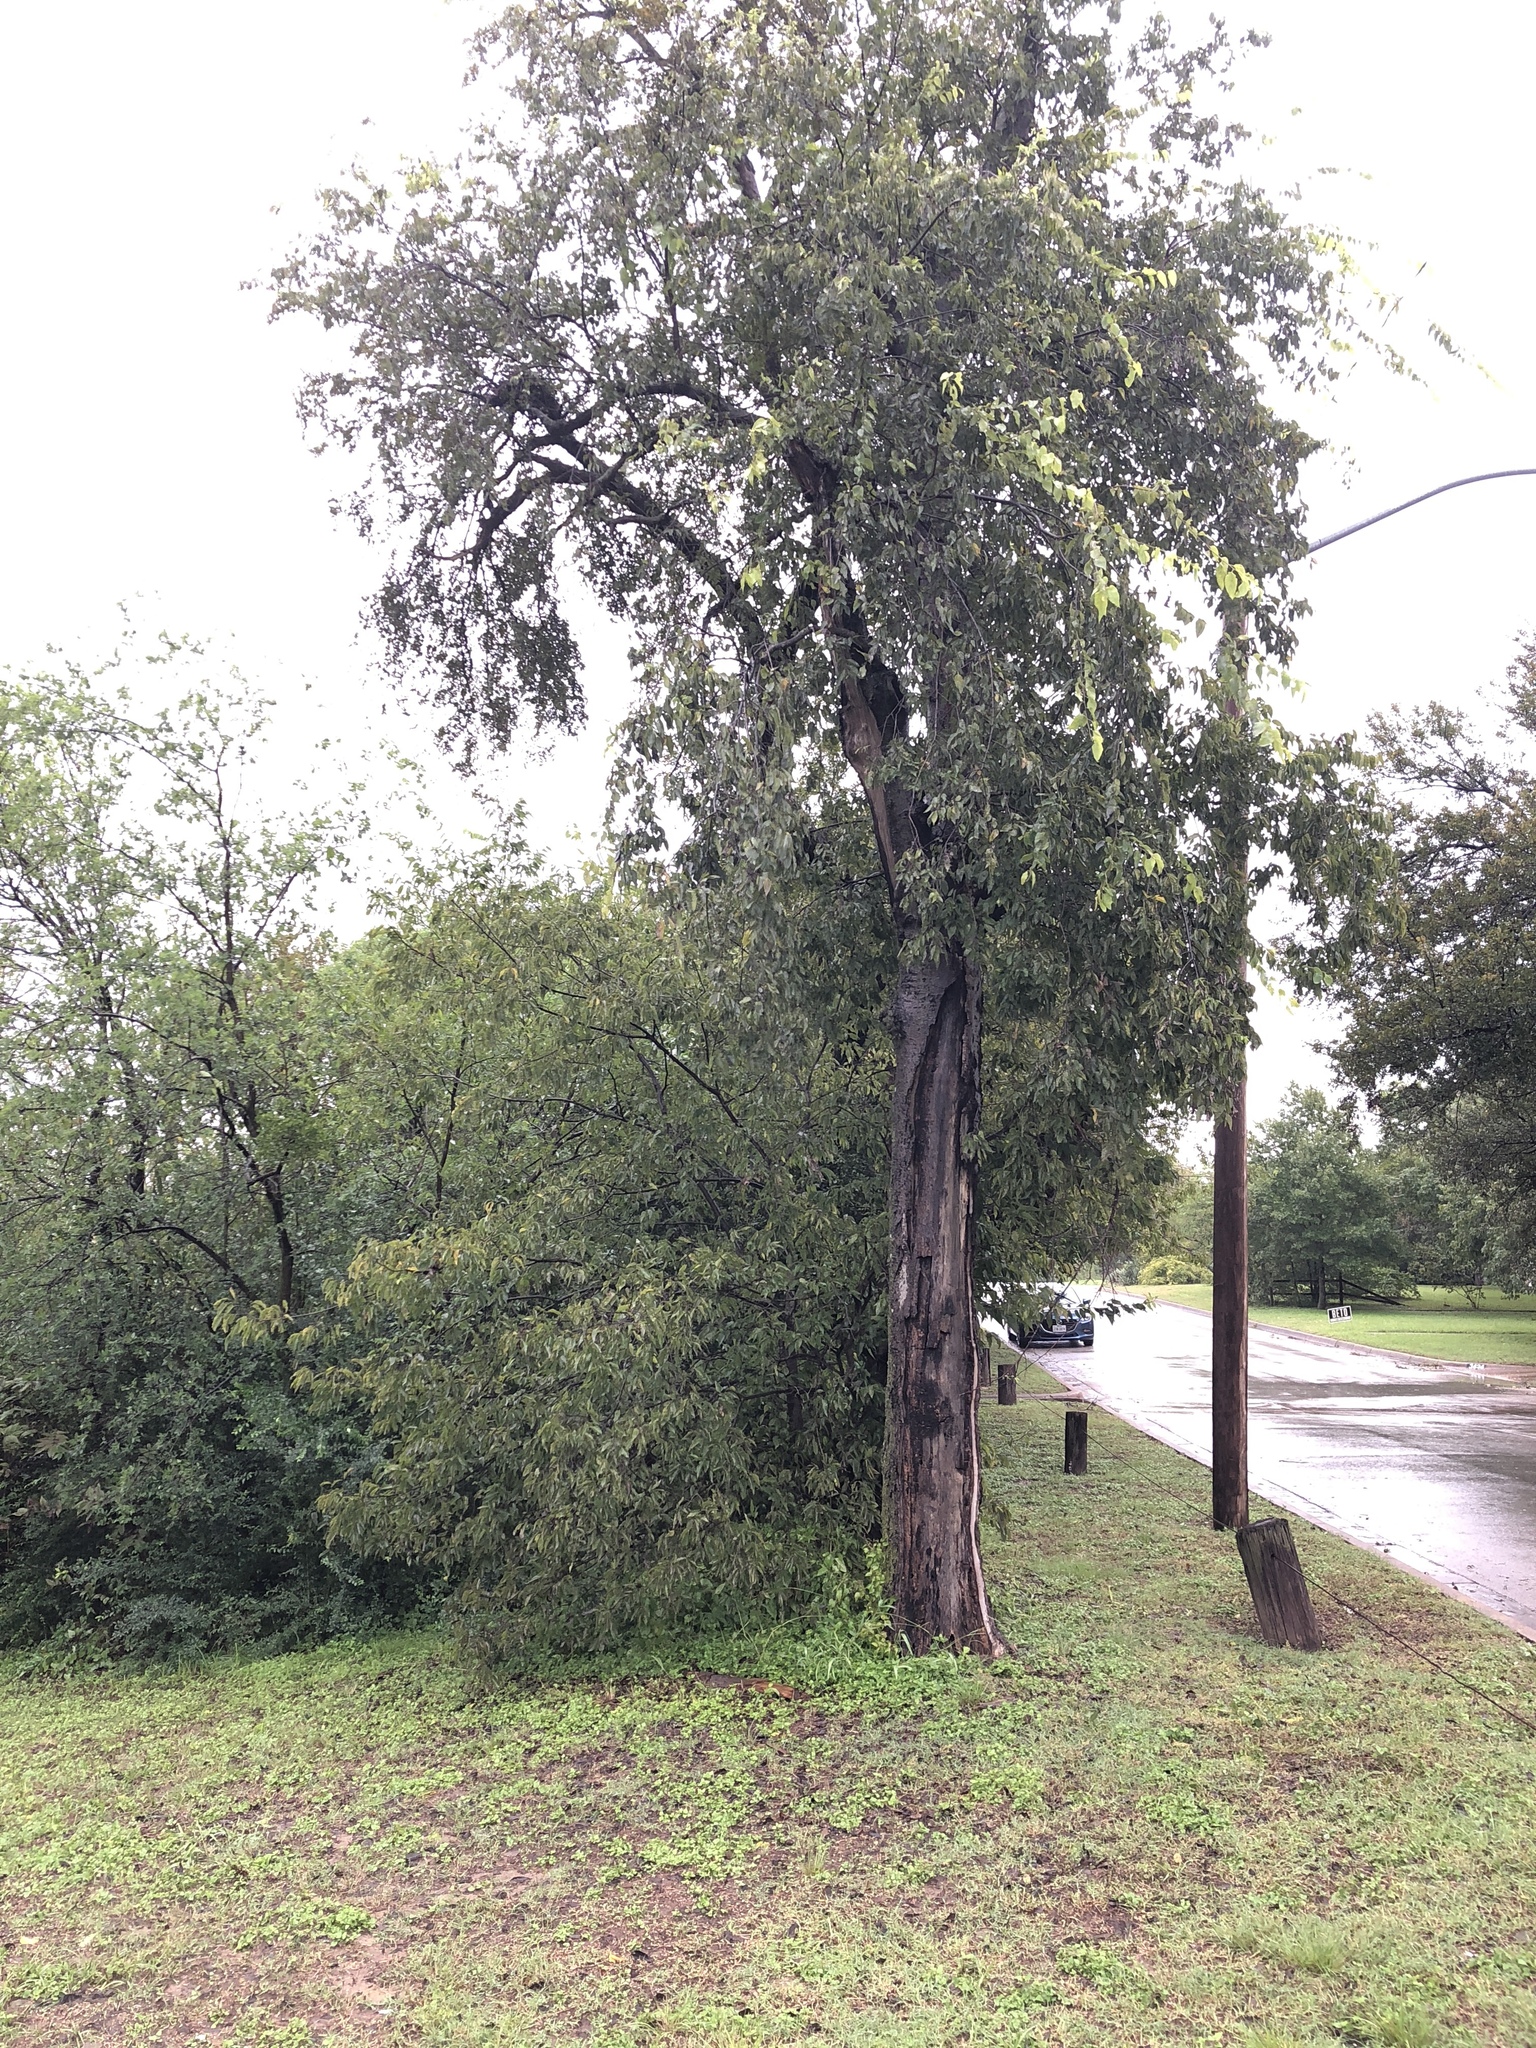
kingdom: Plantae
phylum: Tracheophyta
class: Magnoliopsida
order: Rosales
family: Cannabaceae
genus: Celtis
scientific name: Celtis laevigata
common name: Sugarberry
